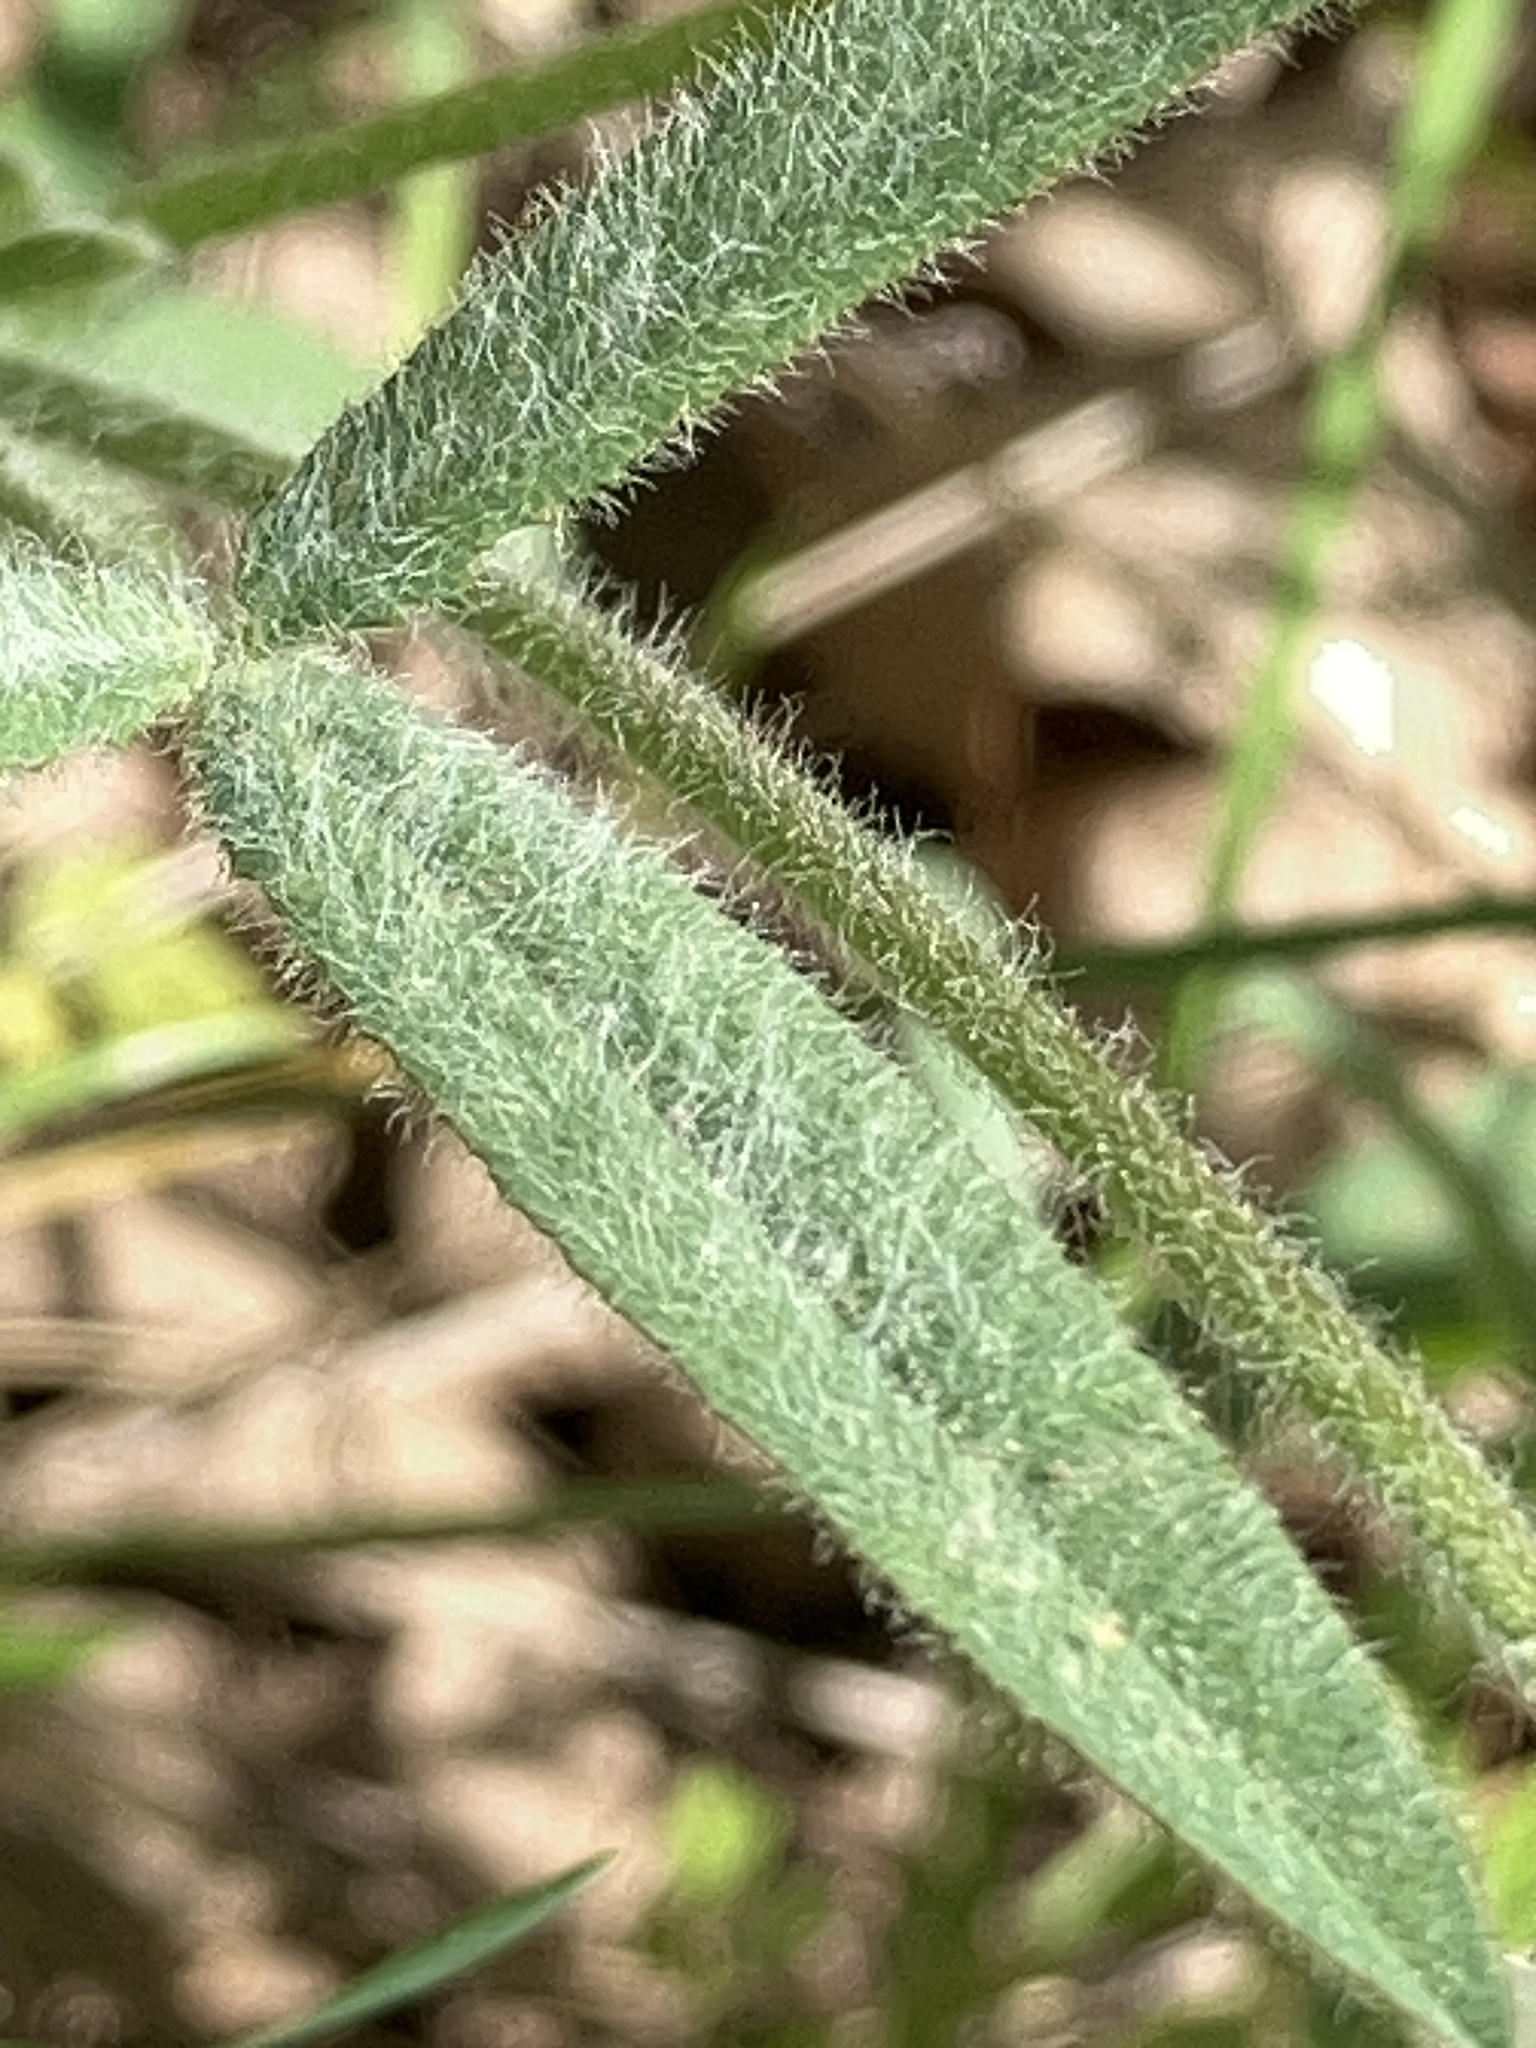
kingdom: Plantae
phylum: Tracheophyta
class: Magnoliopsida
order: Fabales
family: Fabaceae
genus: Trifolium
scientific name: Trifolium eriocephalum
